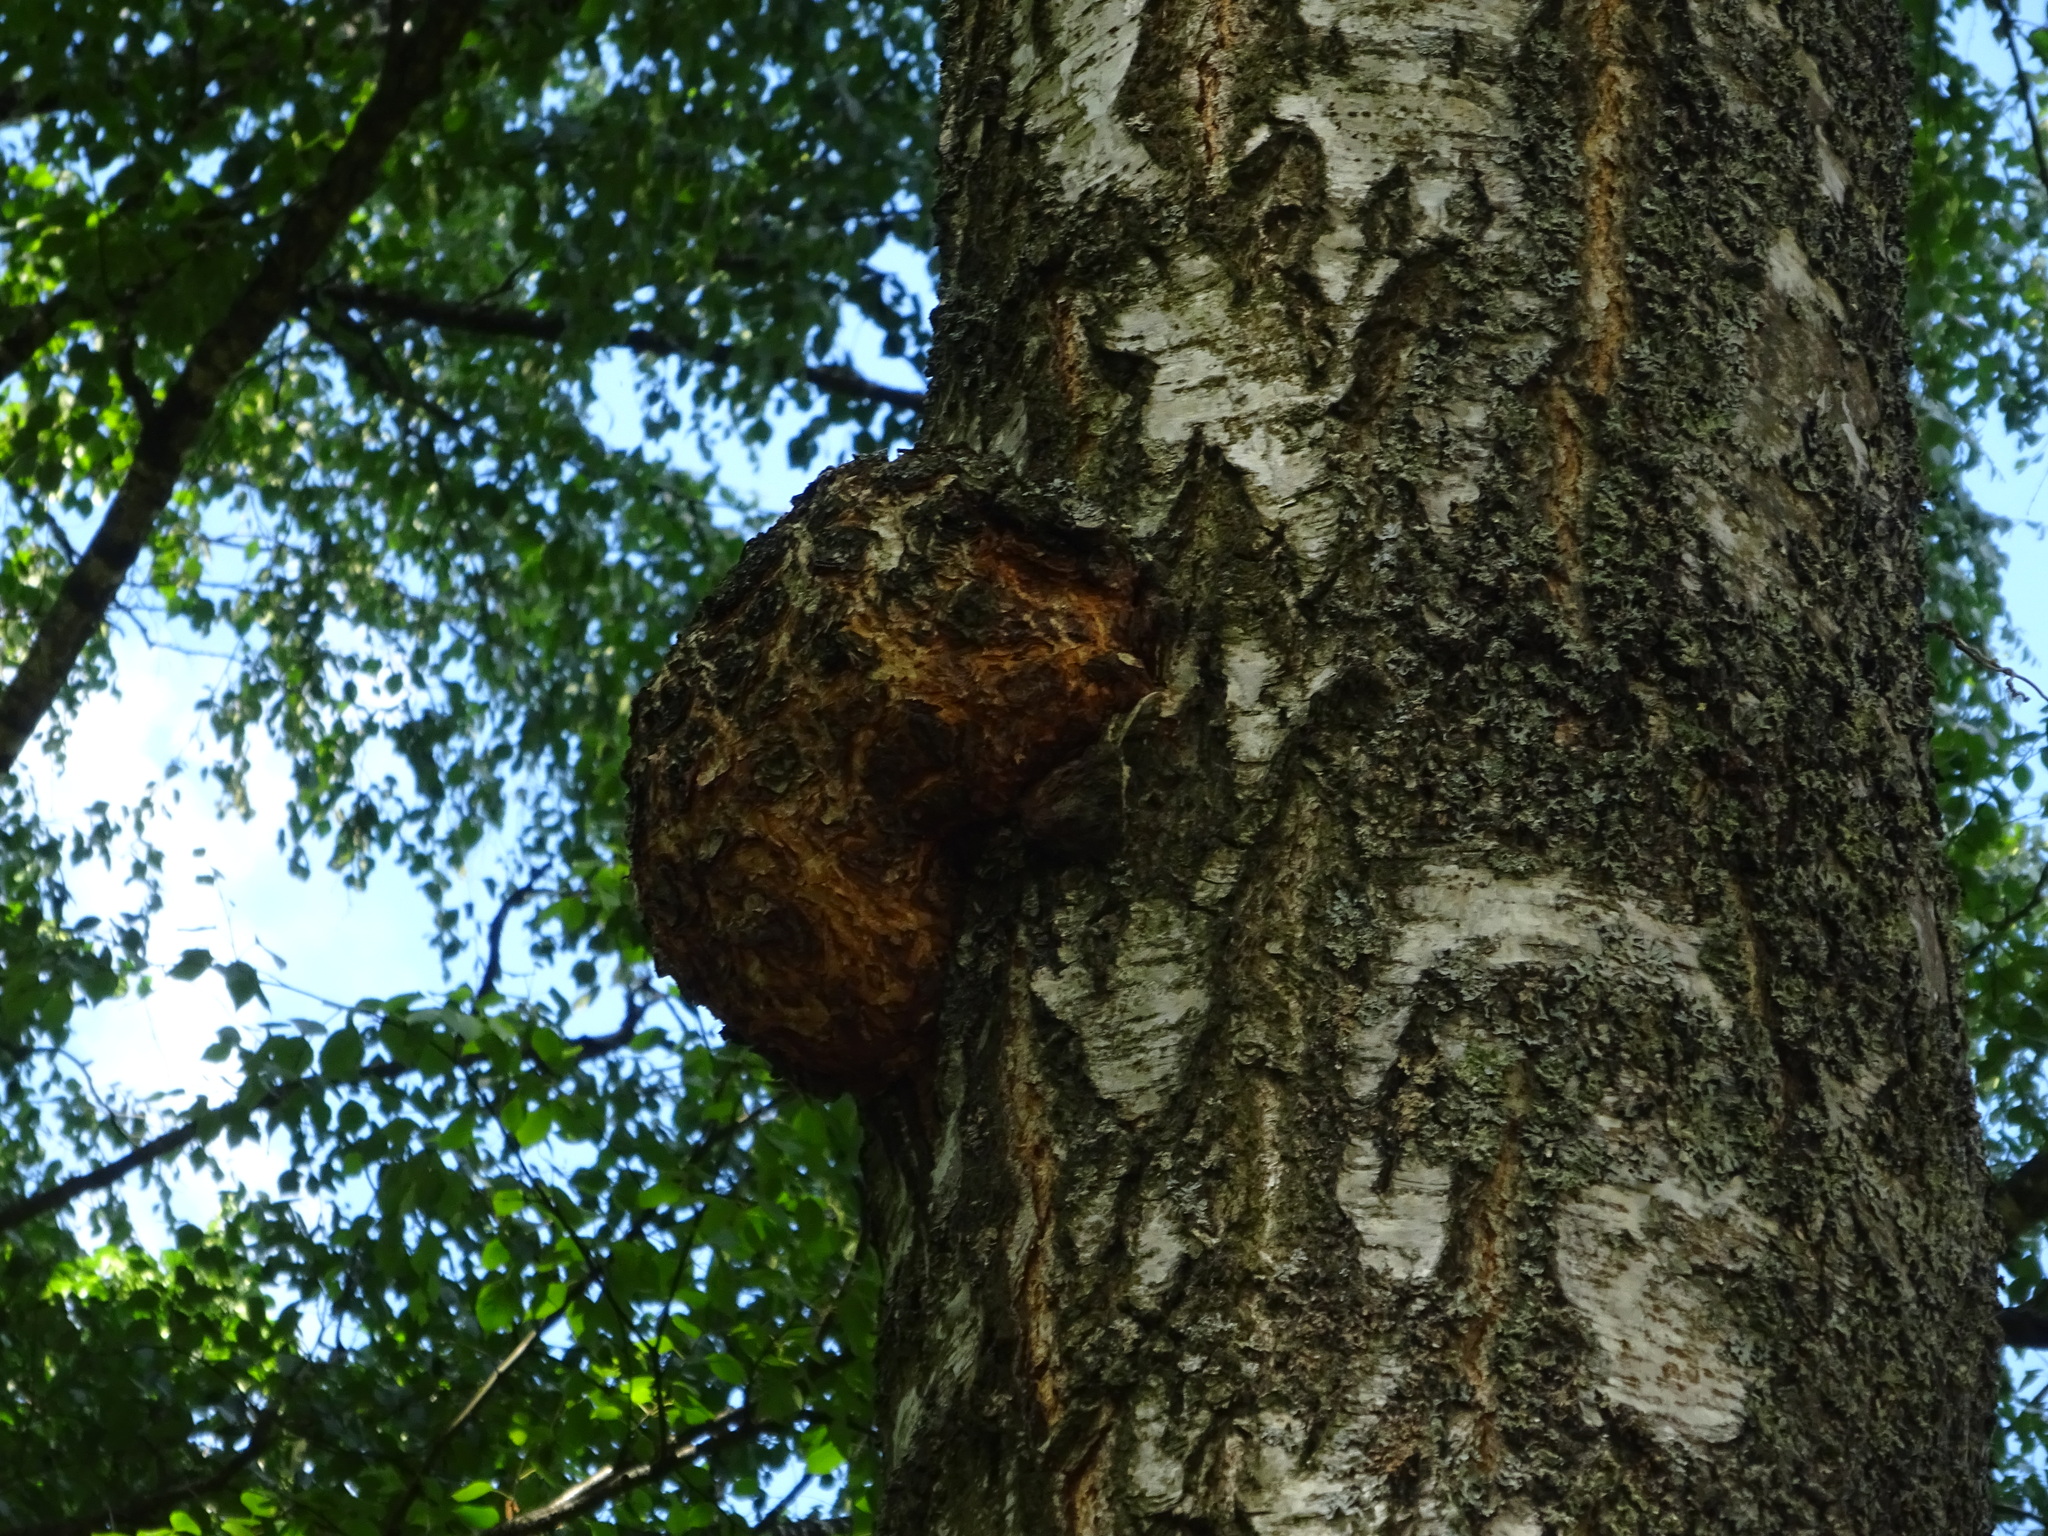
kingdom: Bacteria
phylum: Proteobacteria
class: Alphaproteobacteria
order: Rhizobiales
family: Rhizobiaceae
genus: Rhizobium
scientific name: Rhizobium Agrobacterium radiobacter
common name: Bacterial crown gall
